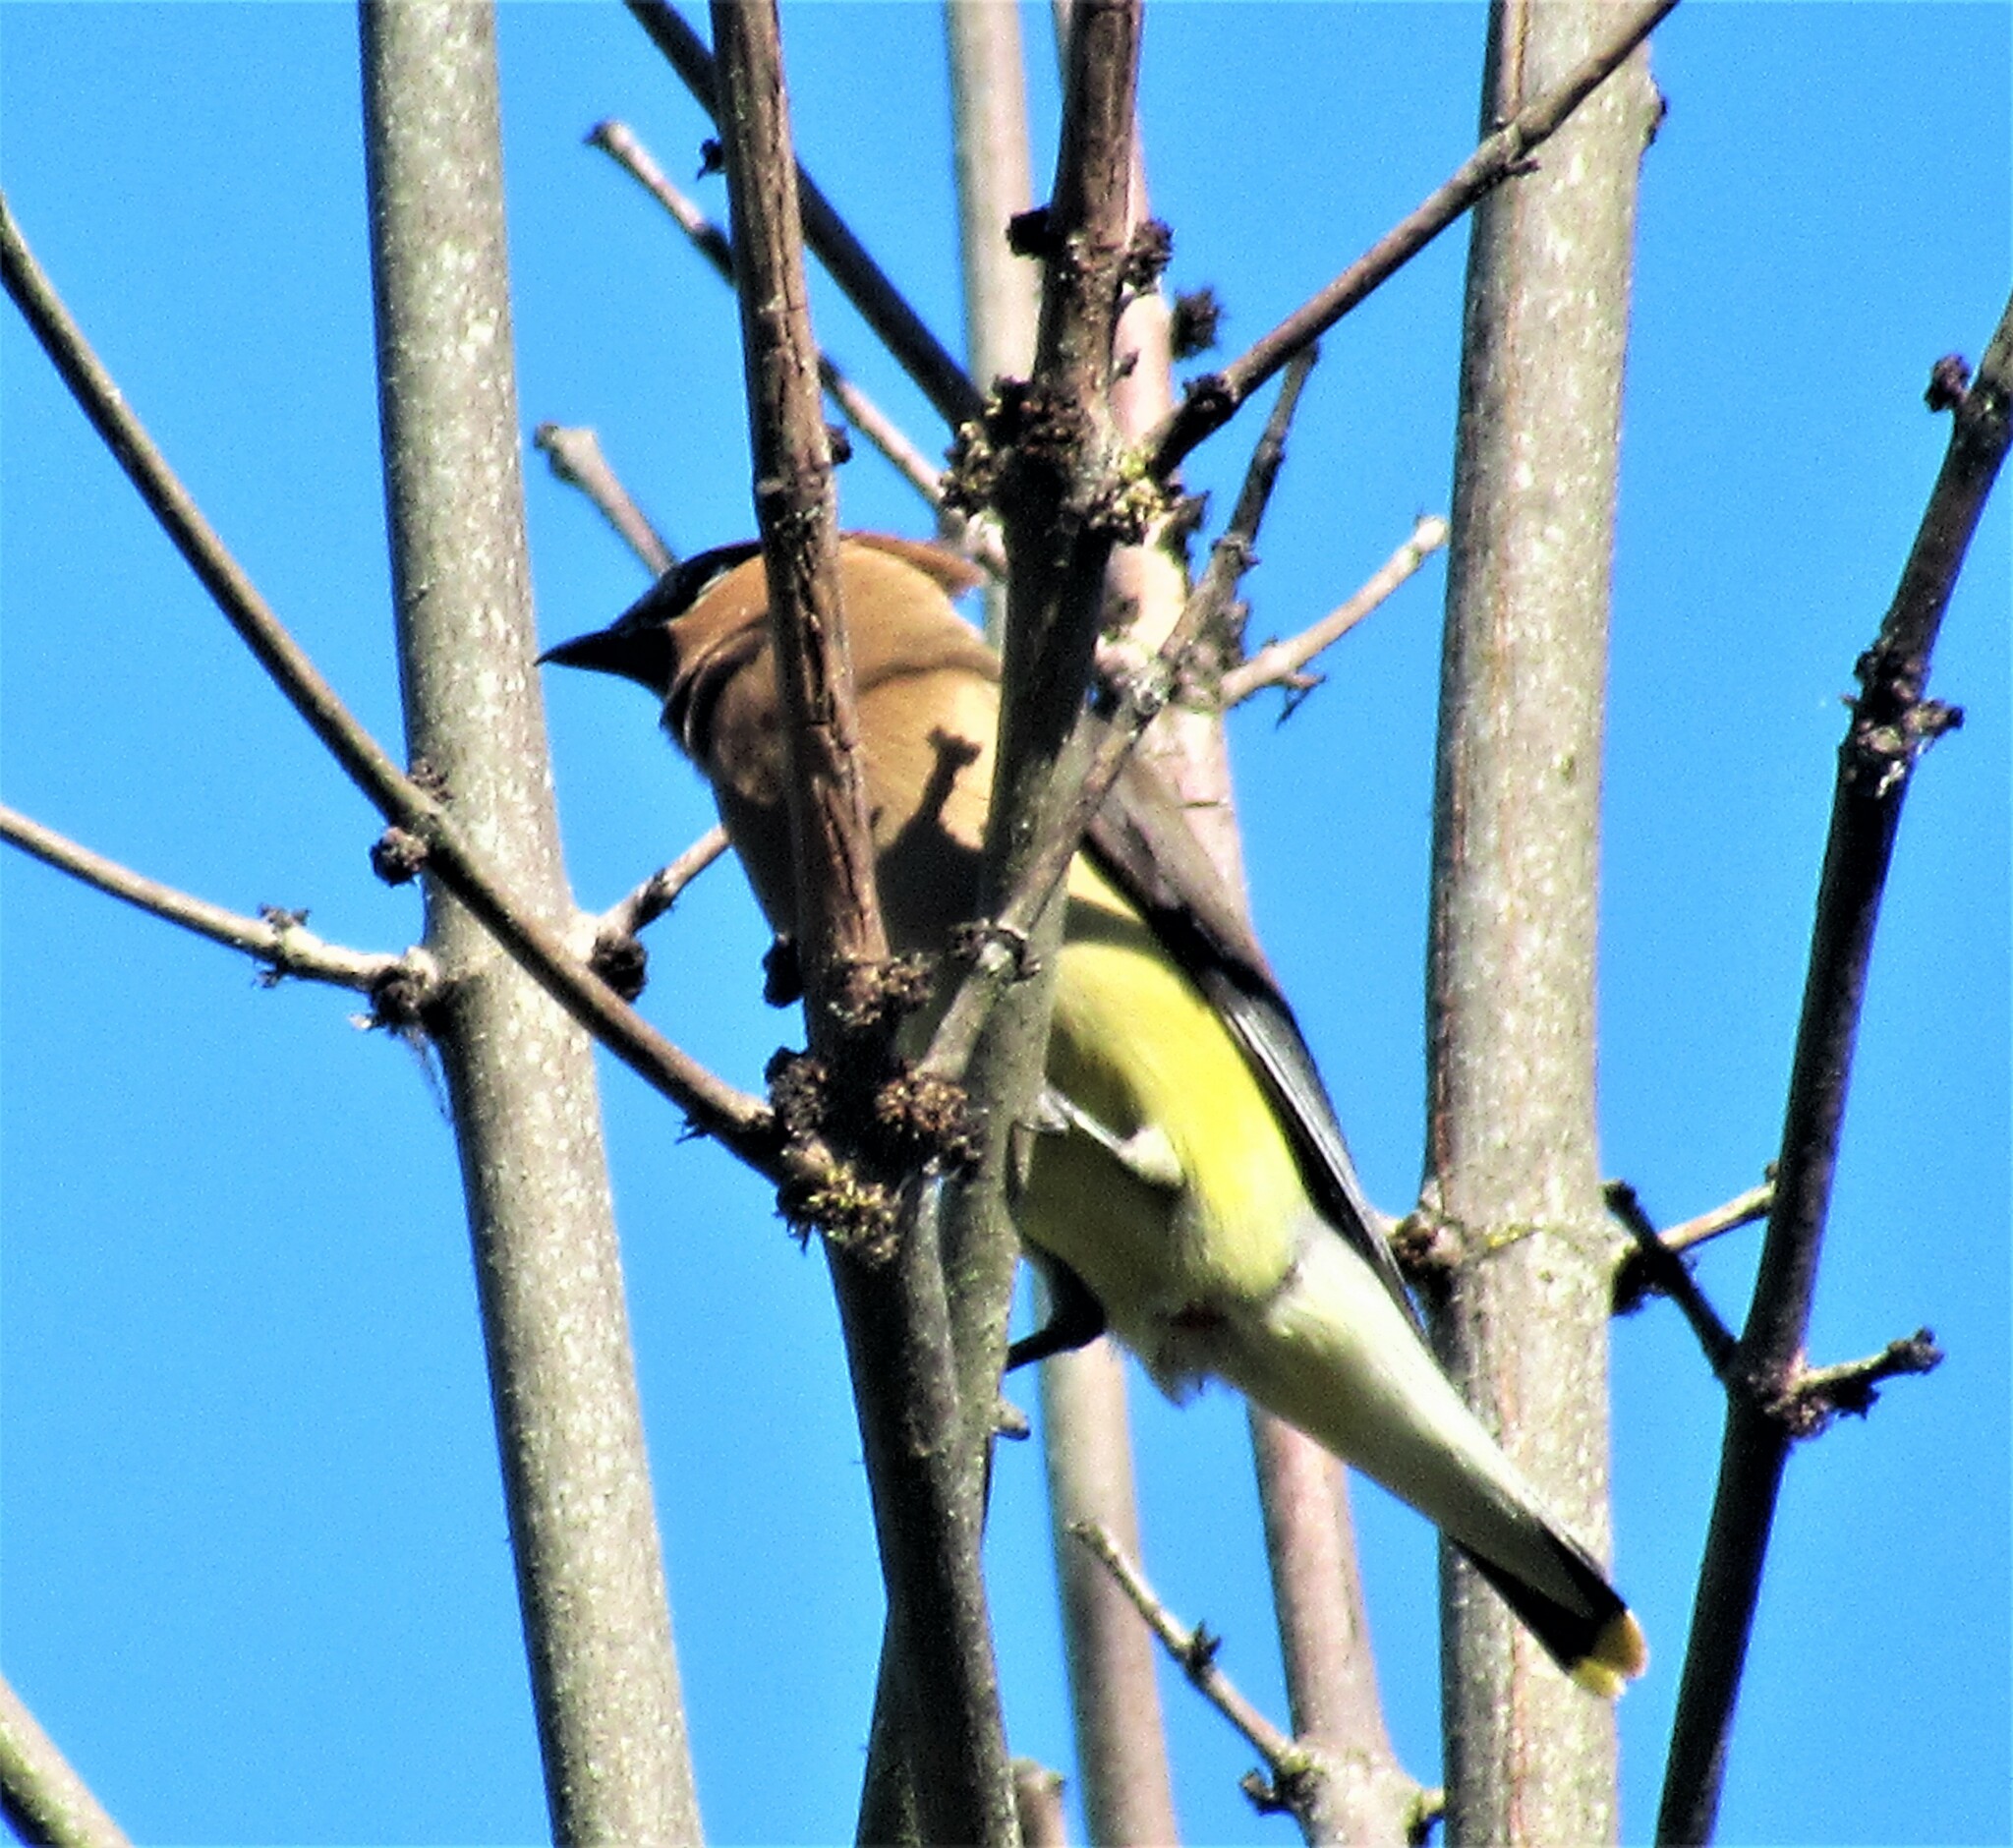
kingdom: Animalia
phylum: Chordata
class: Aves
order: Passeriformes
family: Bombycillidae
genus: Bombycilla
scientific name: Bombycilla cedrorum
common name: Cedar waxwing
